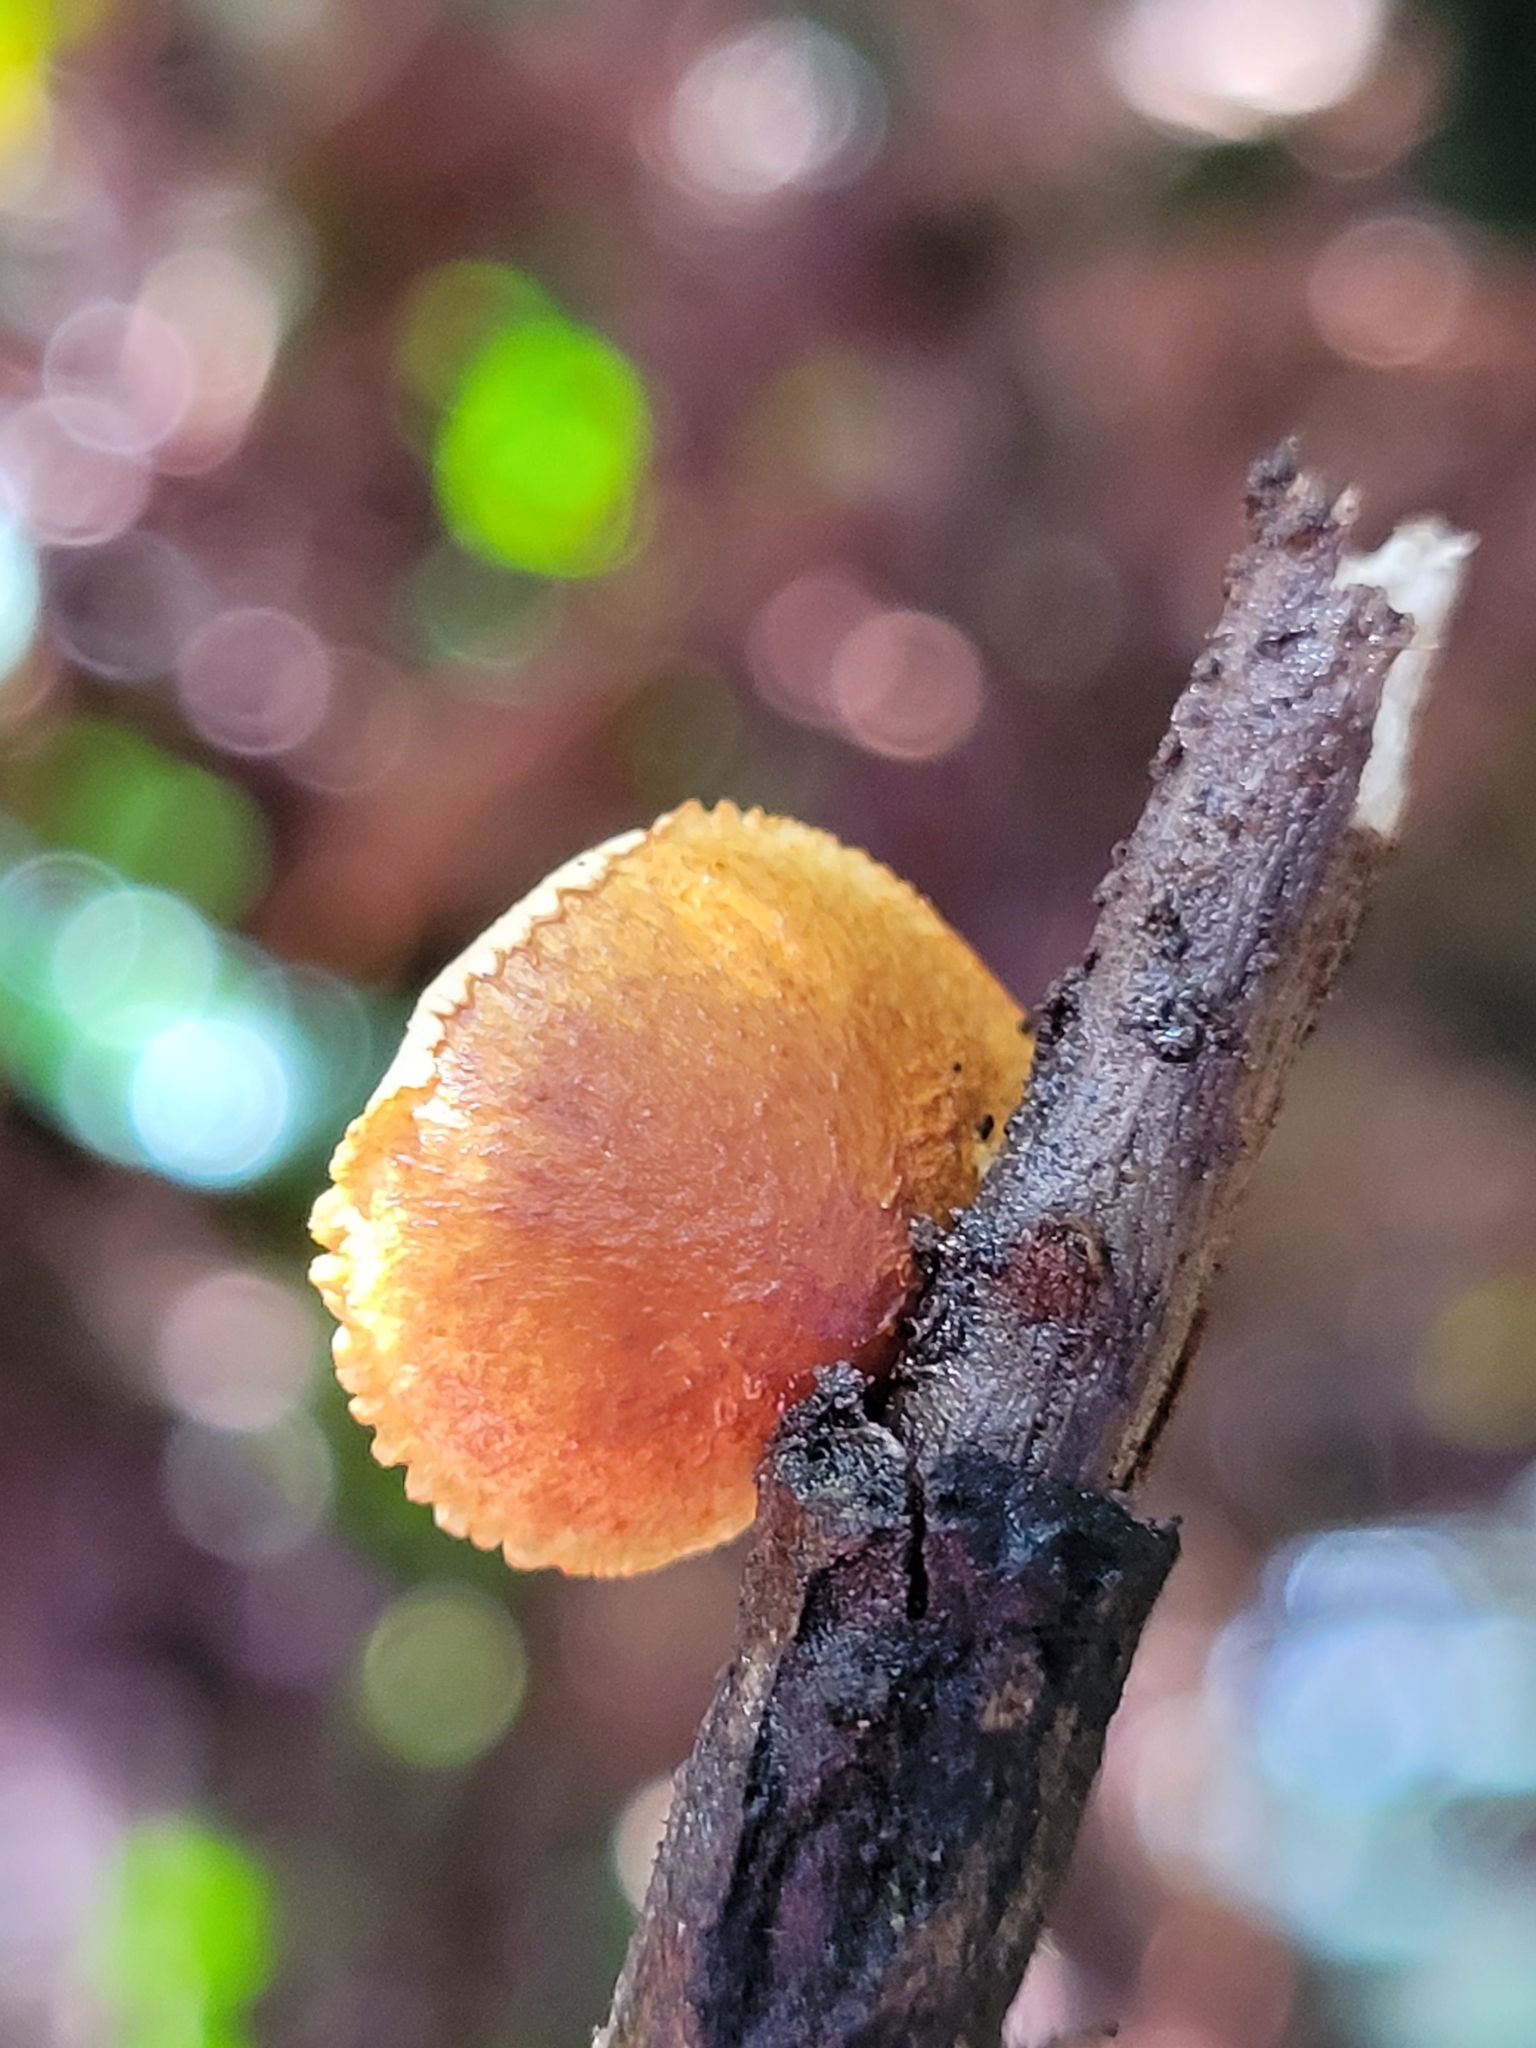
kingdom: Fungi
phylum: Basidiomycota
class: Agaricomycetes
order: Agaricales
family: Crepidotaceae
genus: Pleuroflammula
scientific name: Pleuroflammula praestans
